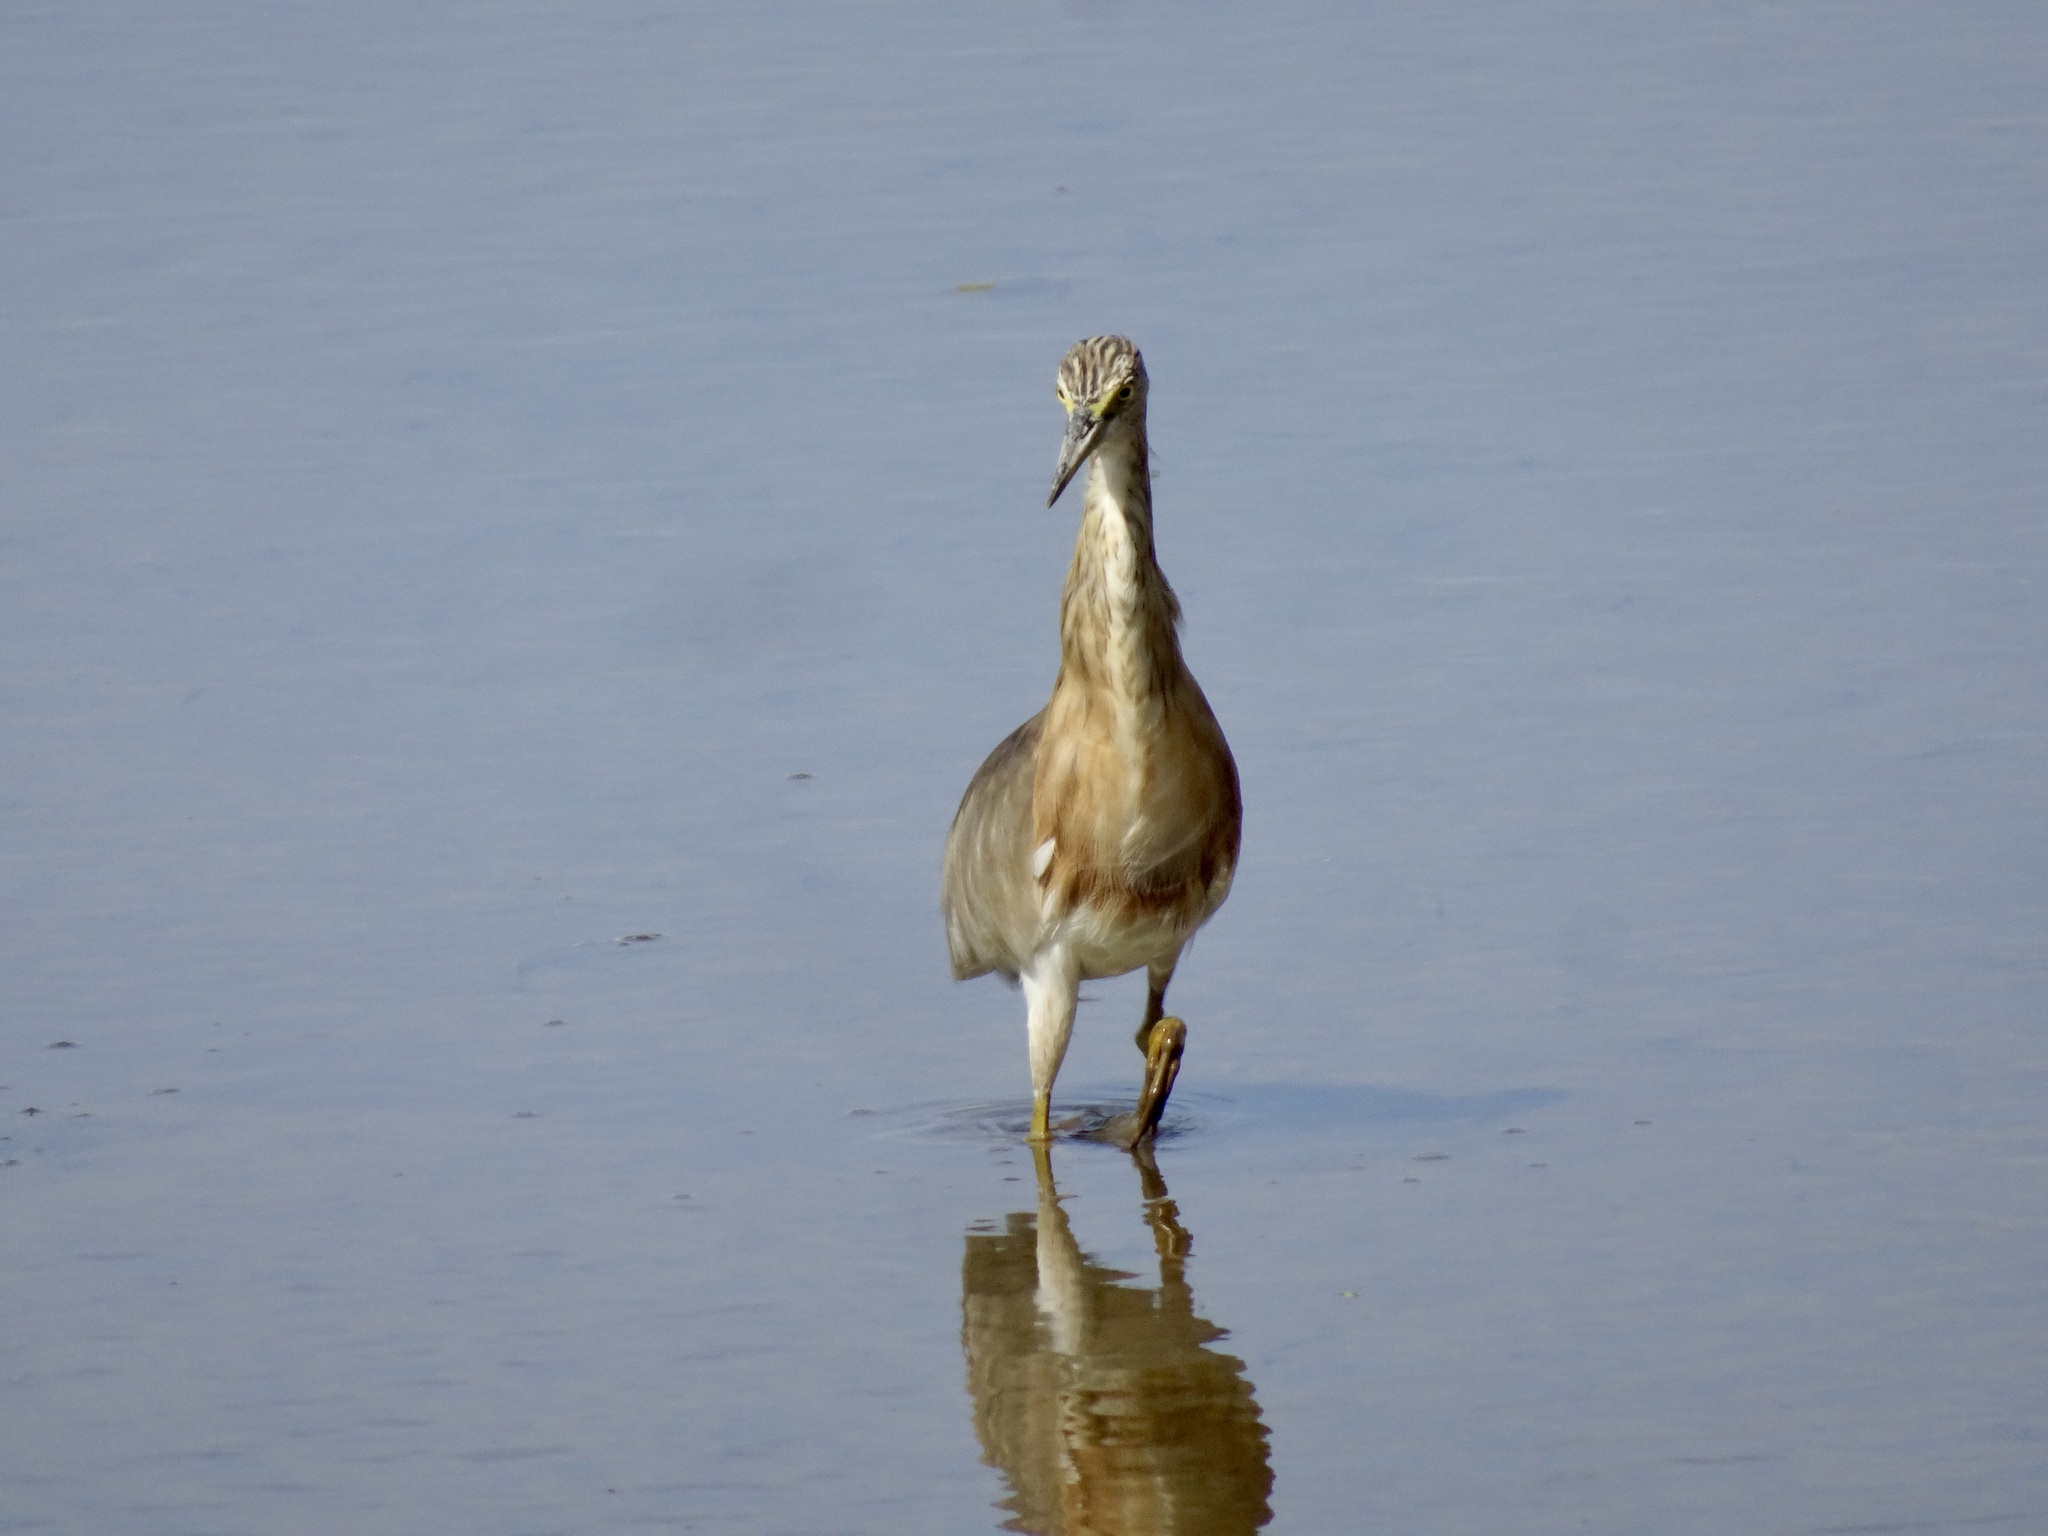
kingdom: Animalia
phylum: Chordata
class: Aves
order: Pelecaniformes
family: Ardeidae
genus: Ardeola
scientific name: Ardeola speciosa
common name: Javan pond heron
